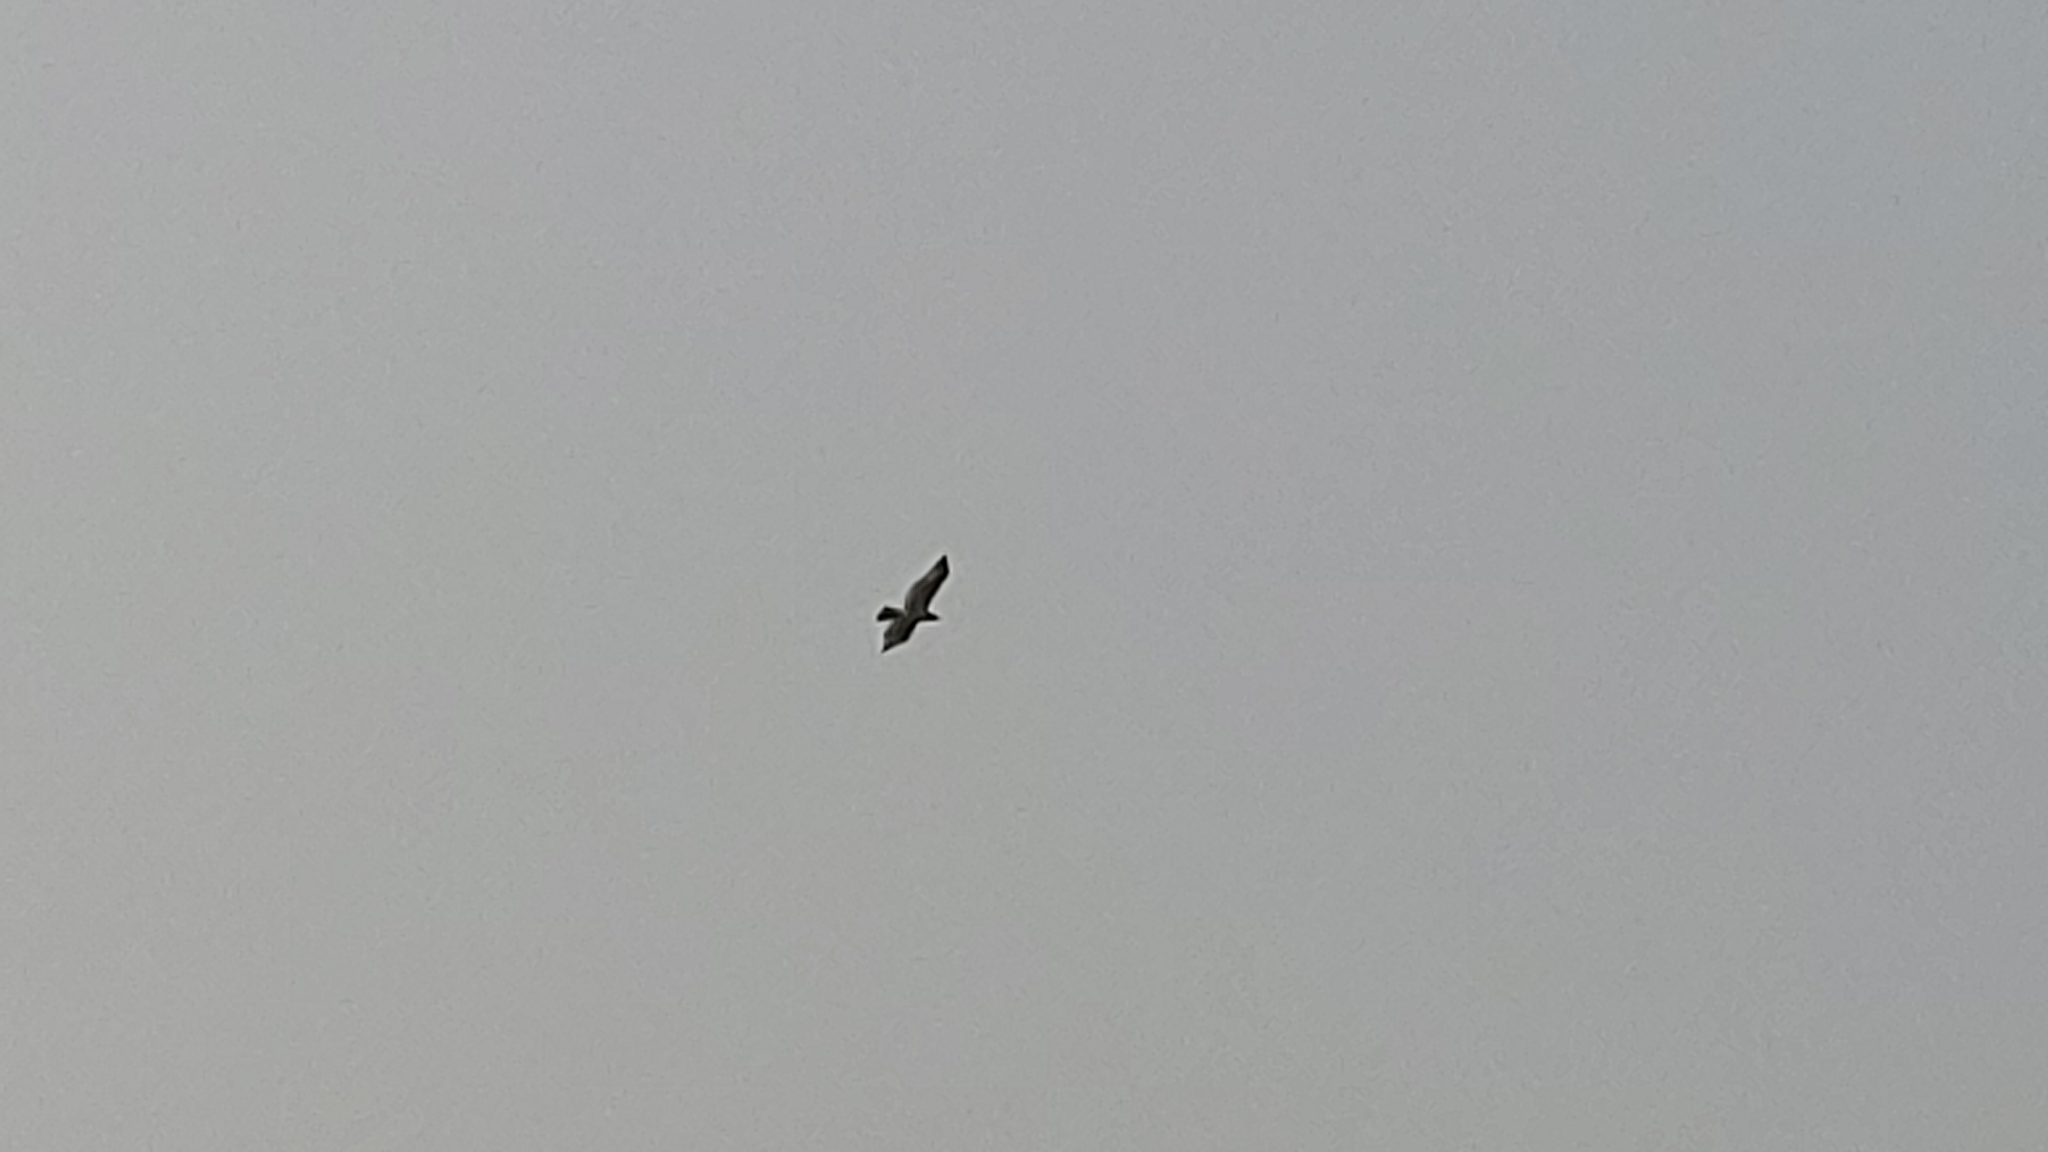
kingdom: Animalia
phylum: Chordata
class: Aves
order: Accipitriformes
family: Accipitridae
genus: Buteo
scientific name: Buteo jamaicensis
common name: Red-tailed hawk
